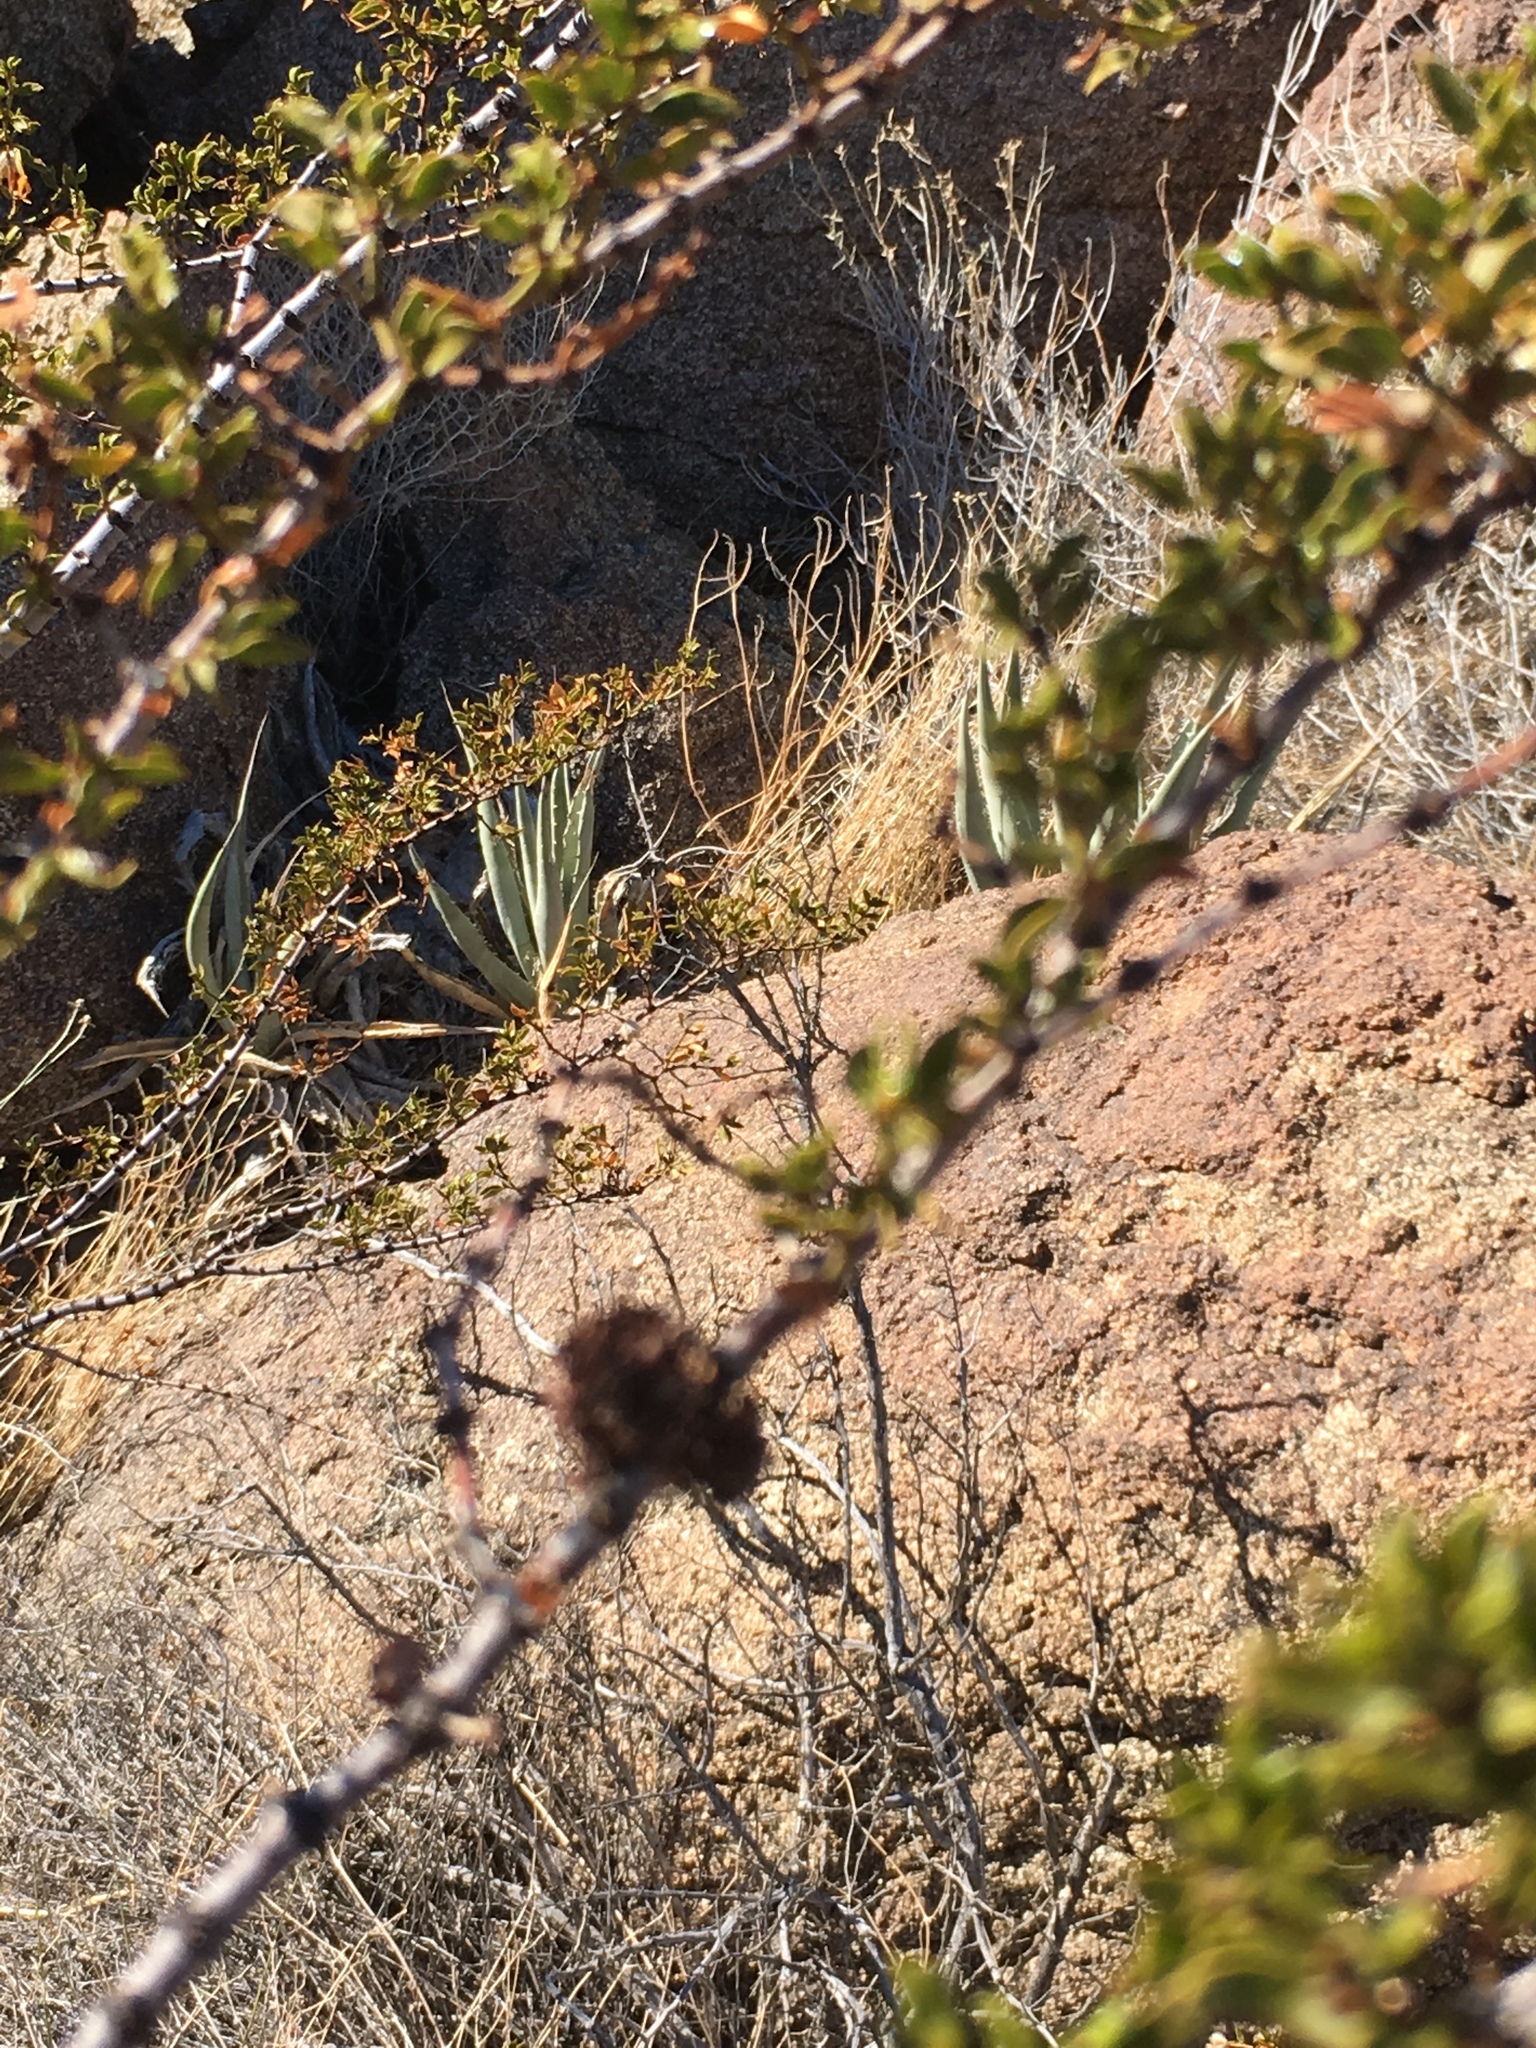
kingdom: Animalia
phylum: Arthropoda
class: Insecta
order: Diptera
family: Cecidomyiidae
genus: Asphondylia
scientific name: Asphondylia auripila
